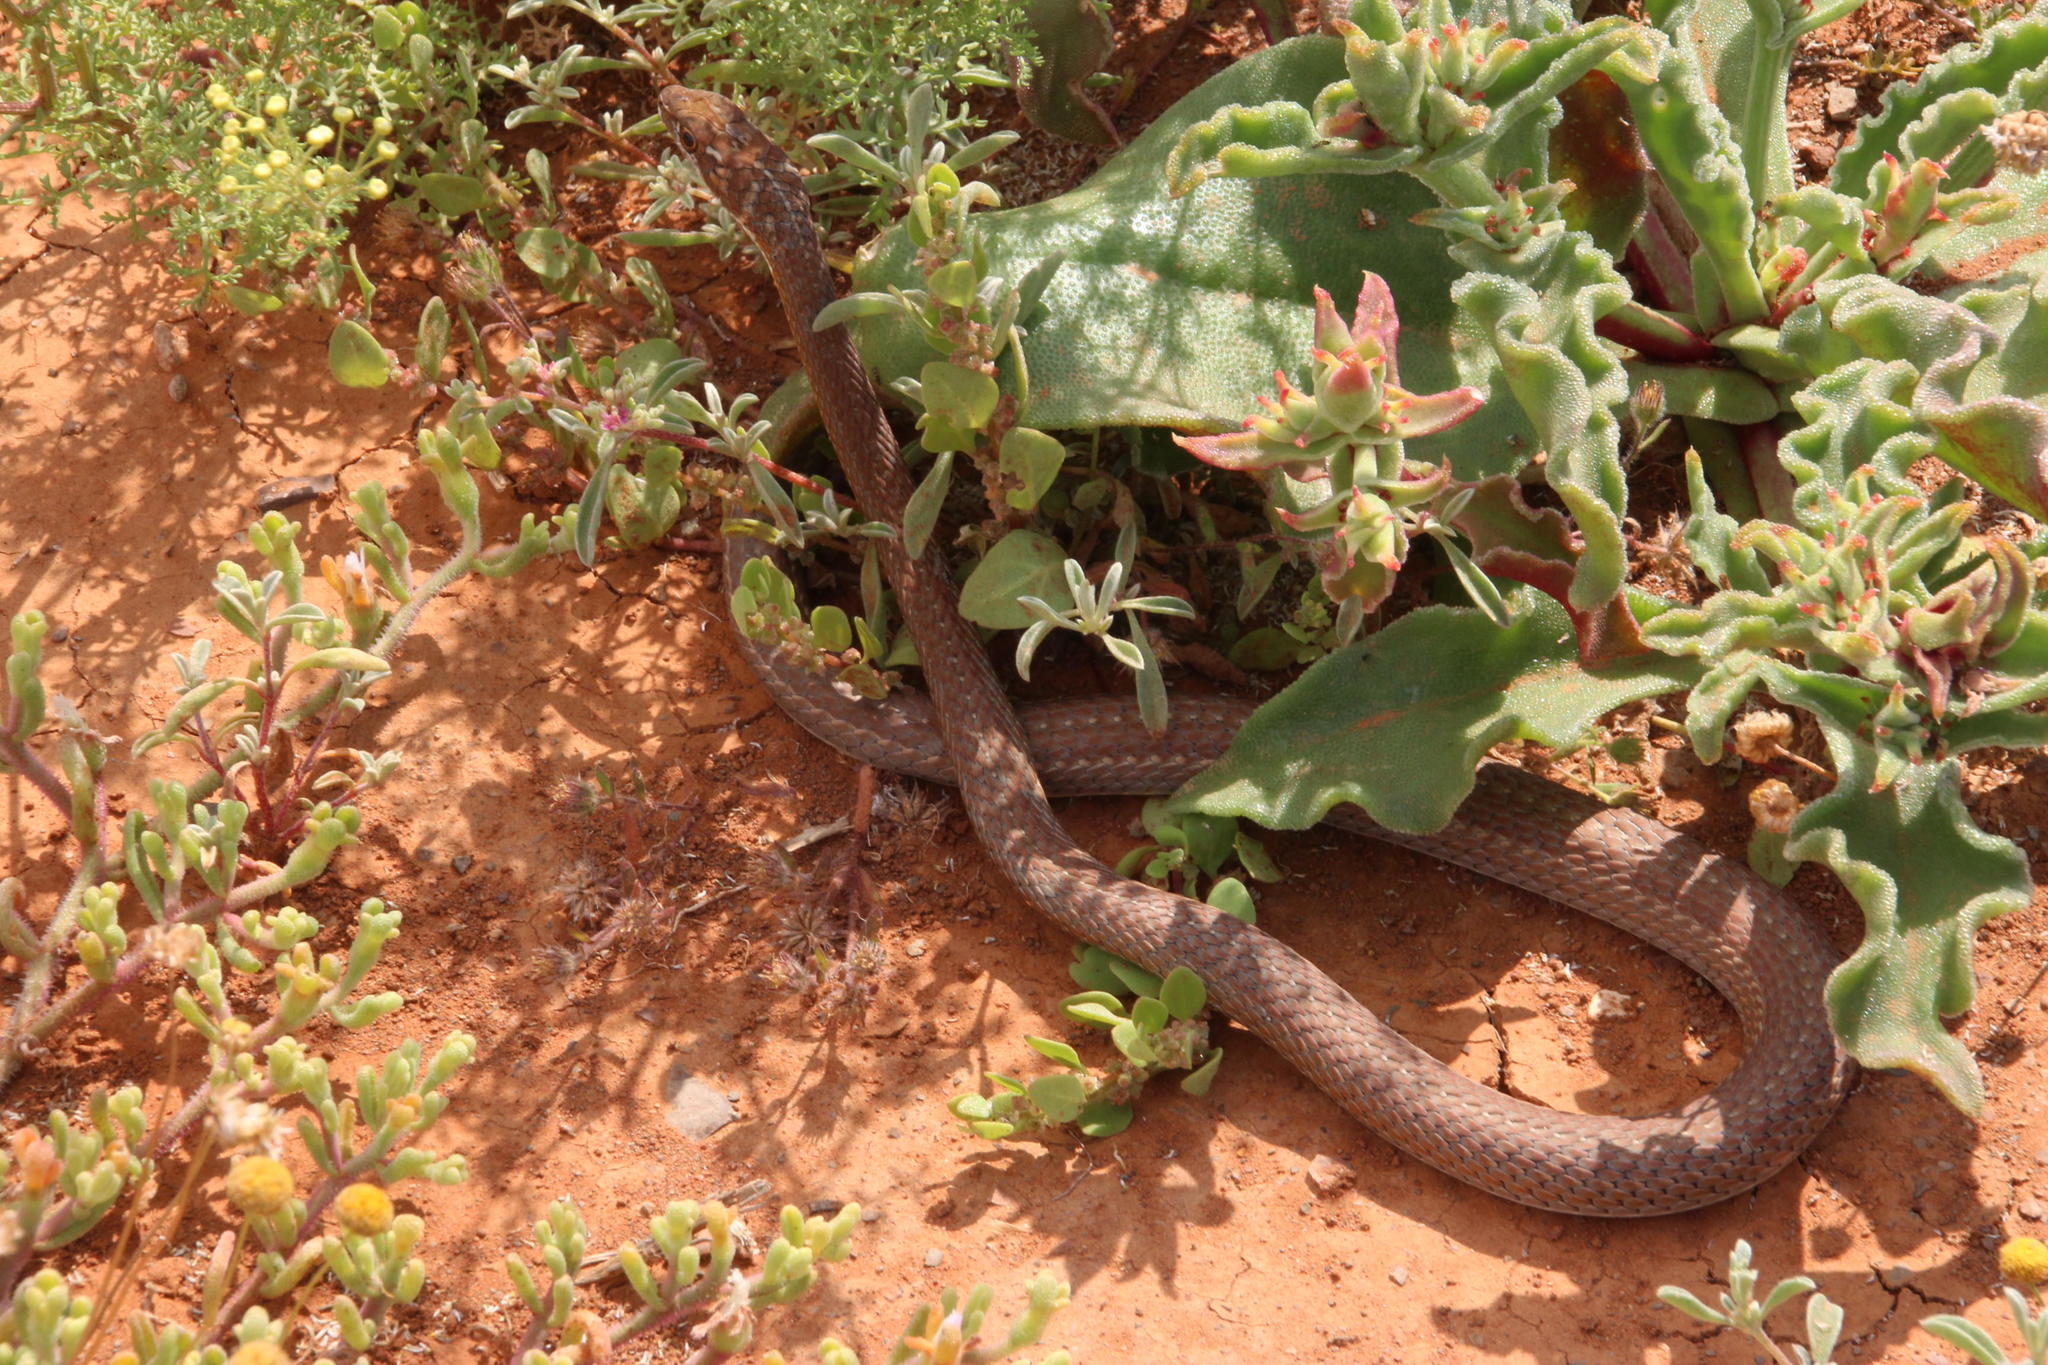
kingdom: Animalia
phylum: Chordata
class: Squamata
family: Psammophiidae
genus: Psammophis
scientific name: Psammophis notostictus
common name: Karoo sand snake
